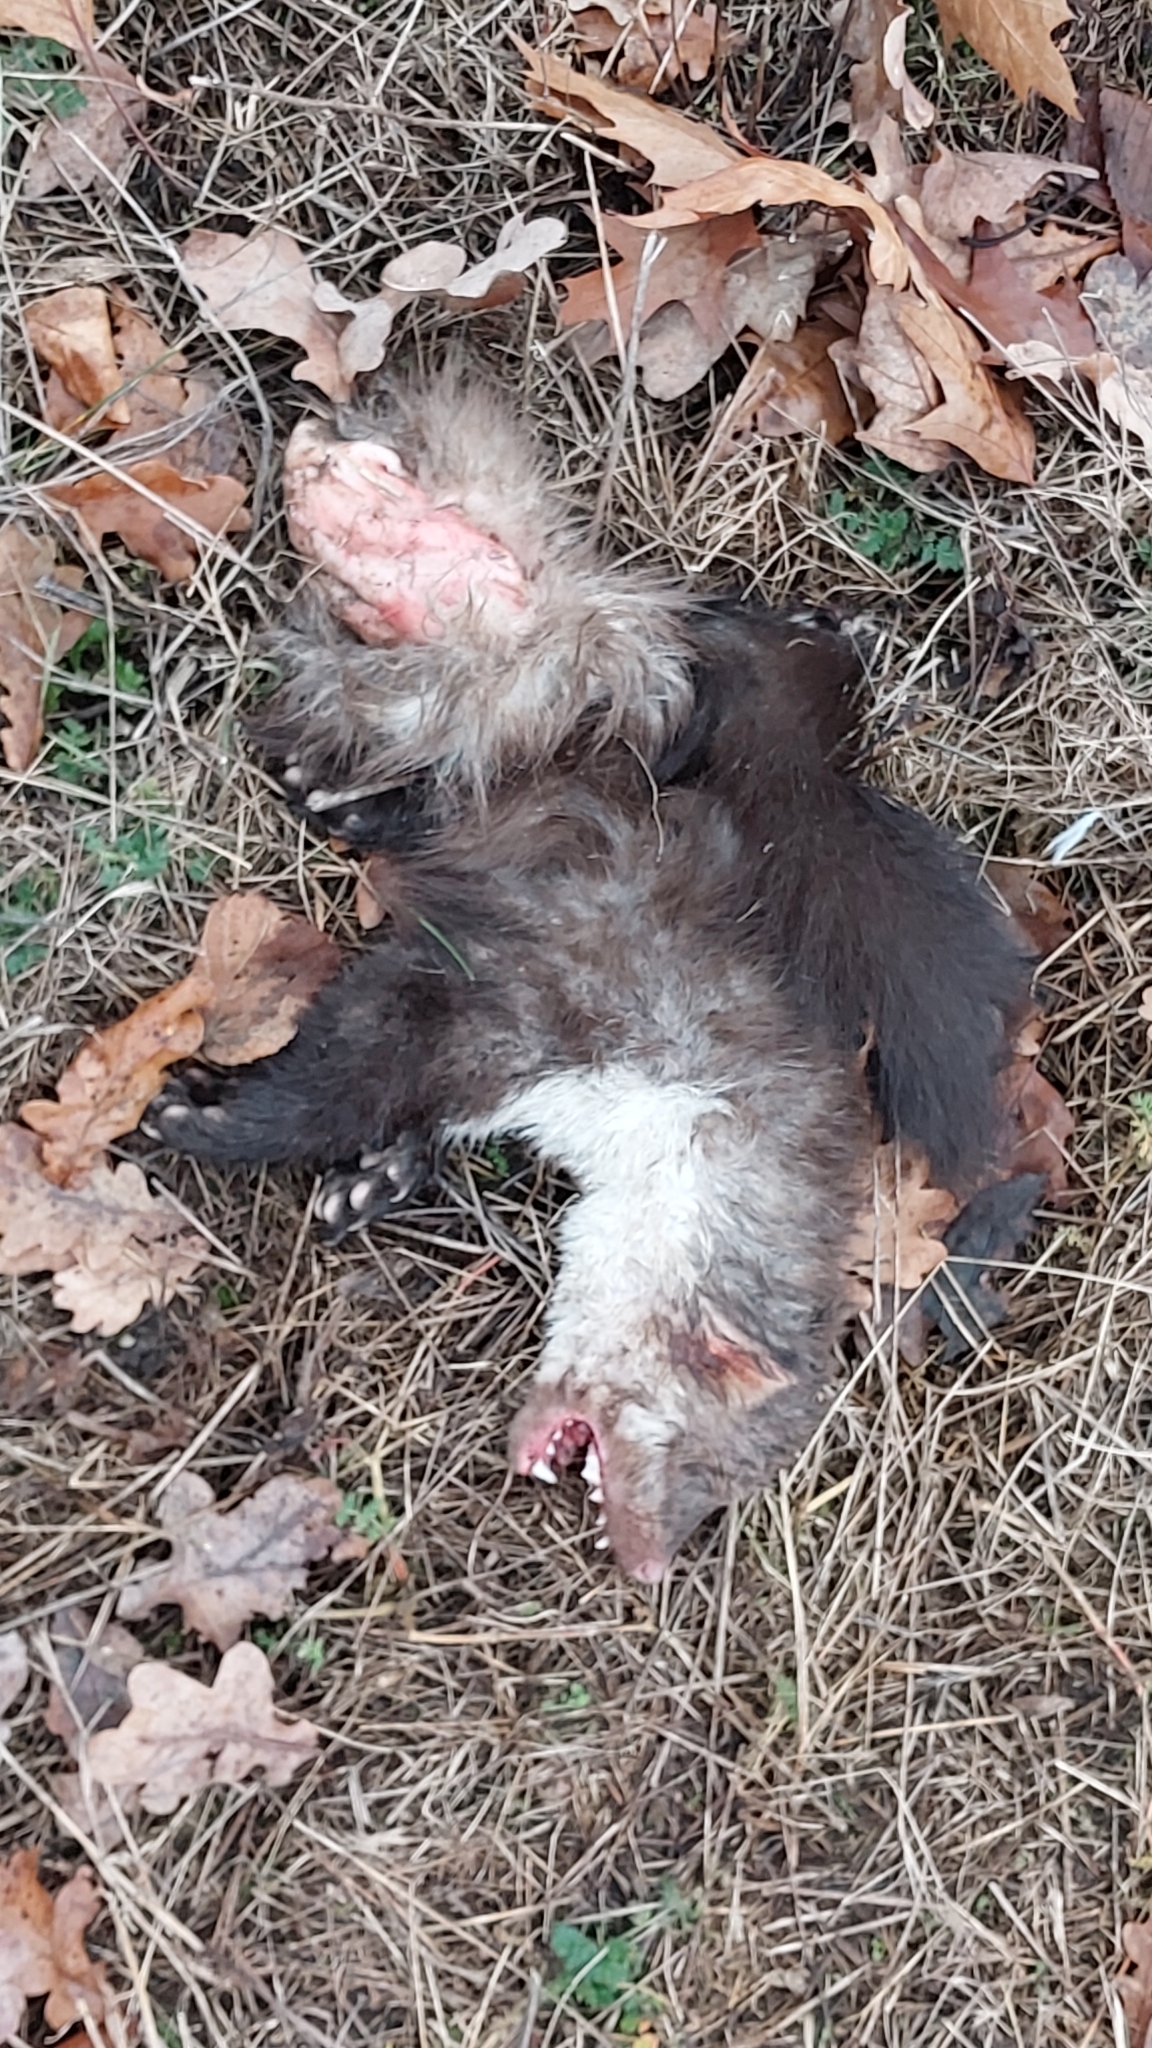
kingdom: Animalia
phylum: Chordata
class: Mammalia
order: Carnivora
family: Mustelidae
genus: Martes
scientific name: Martes foina
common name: Beech marten
